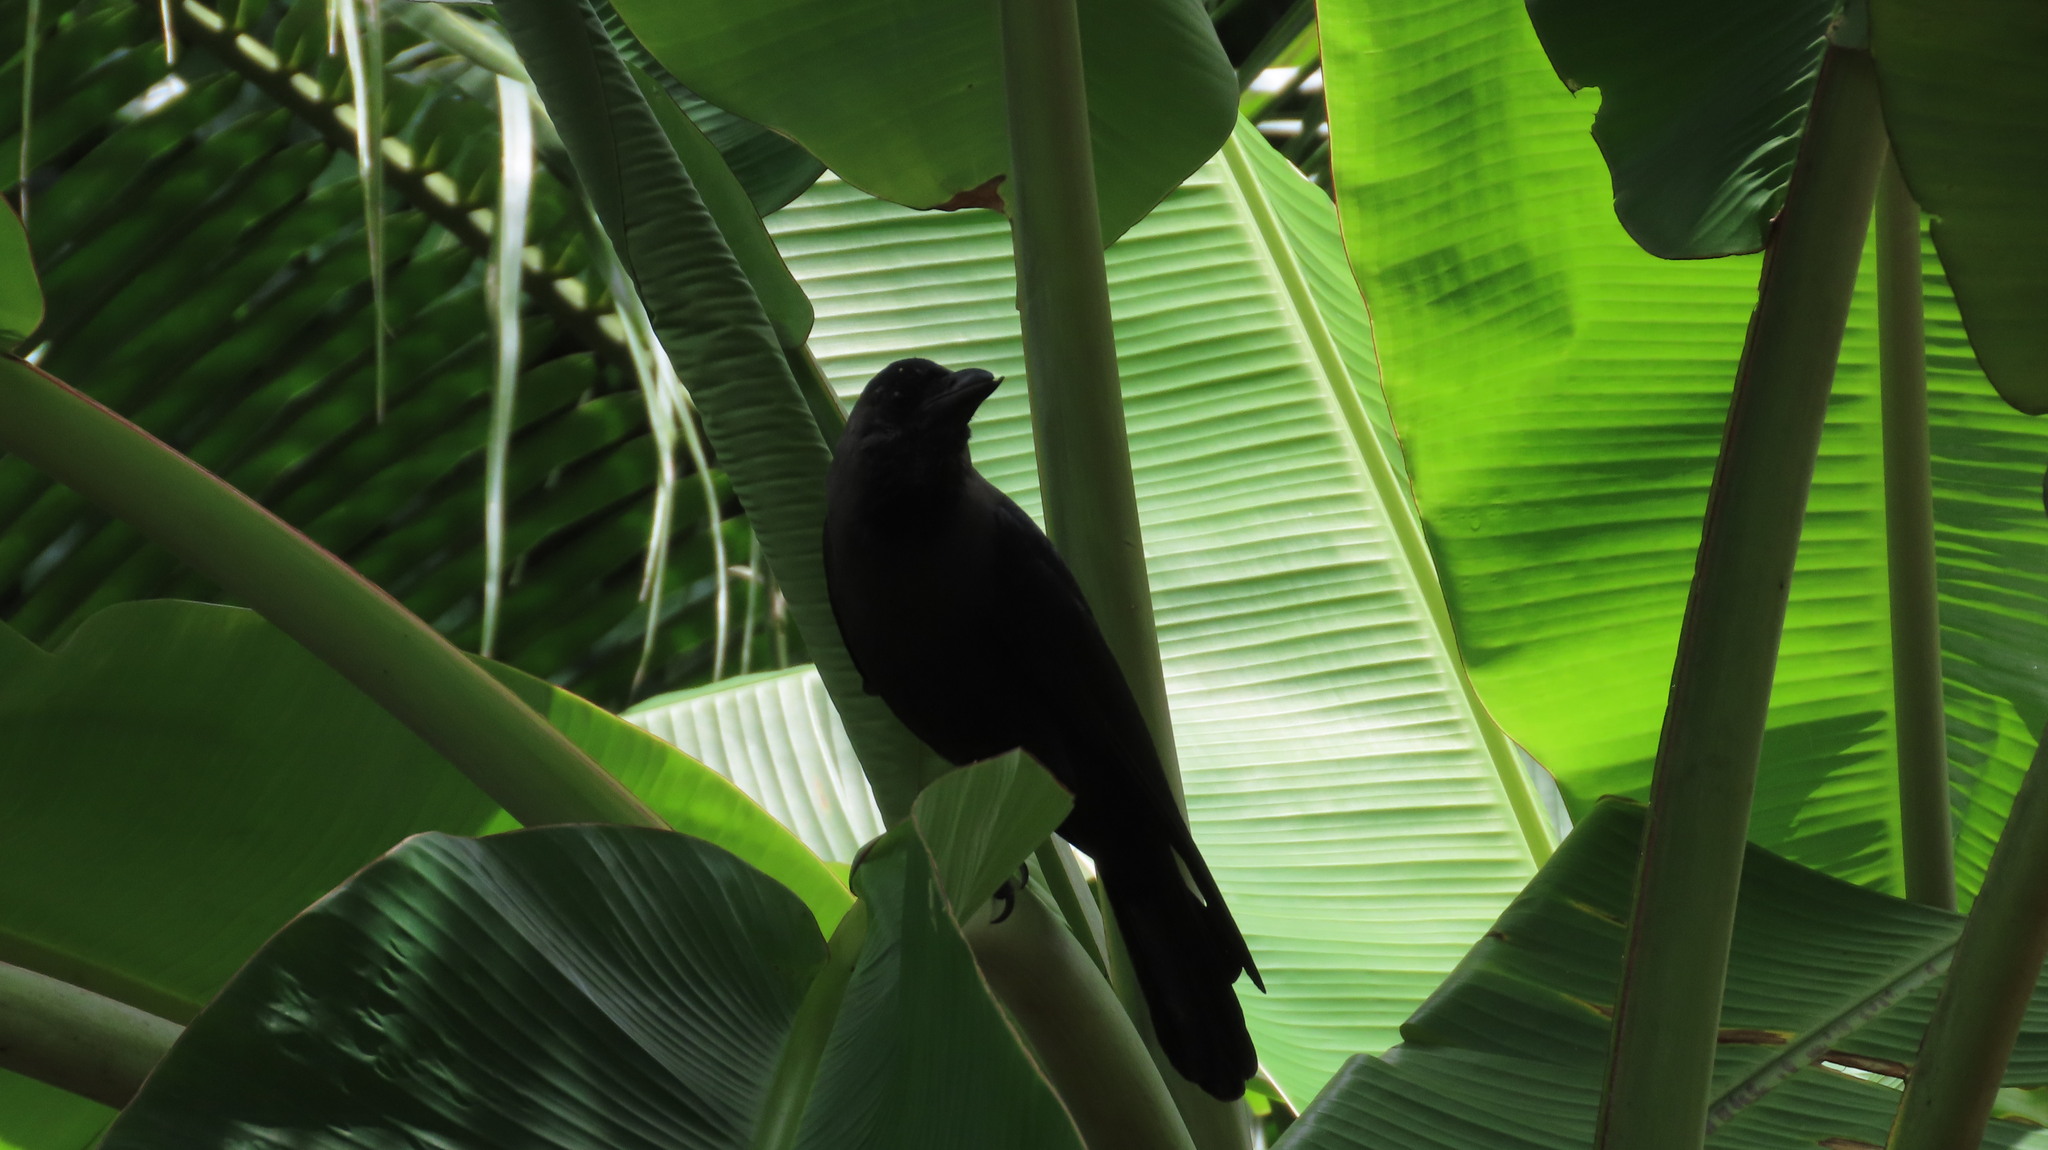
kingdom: Animalia
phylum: Chordata
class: Aves
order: Passeriformes
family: Corvidae
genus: Corvus
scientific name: Corvus splendens
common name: House crow
